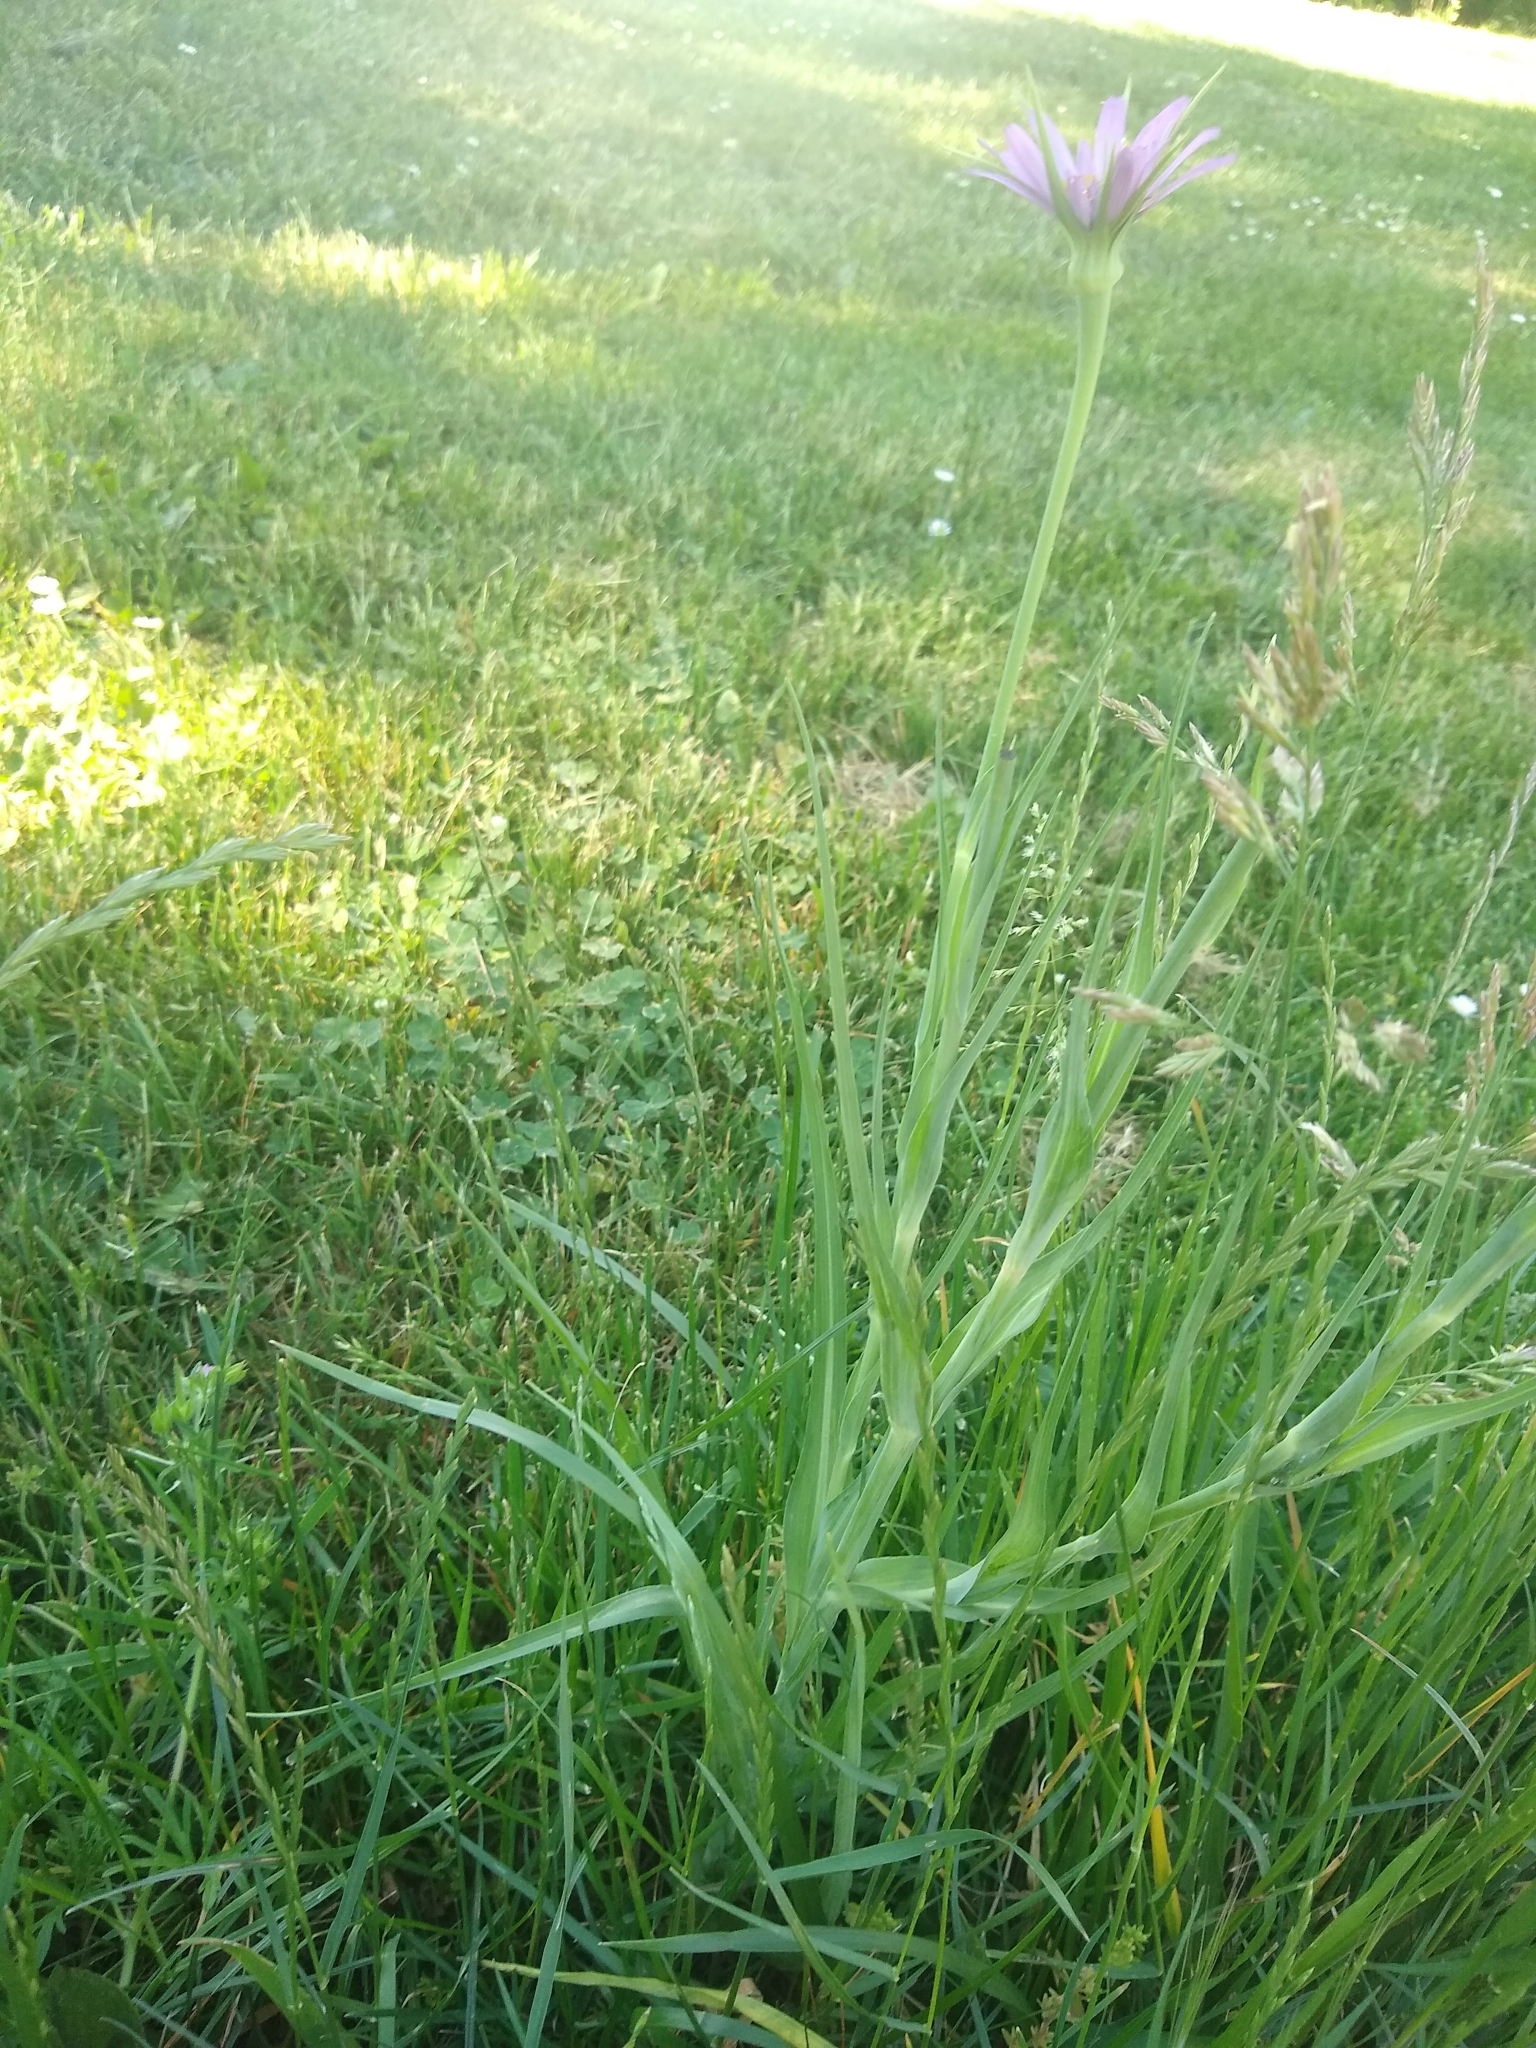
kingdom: Plantae
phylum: Tracheophyta
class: Magnoliopsida
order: Asterales
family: Asteraceae
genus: Tragopogon
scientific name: Tragopogon porrifolius
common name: Salsify
